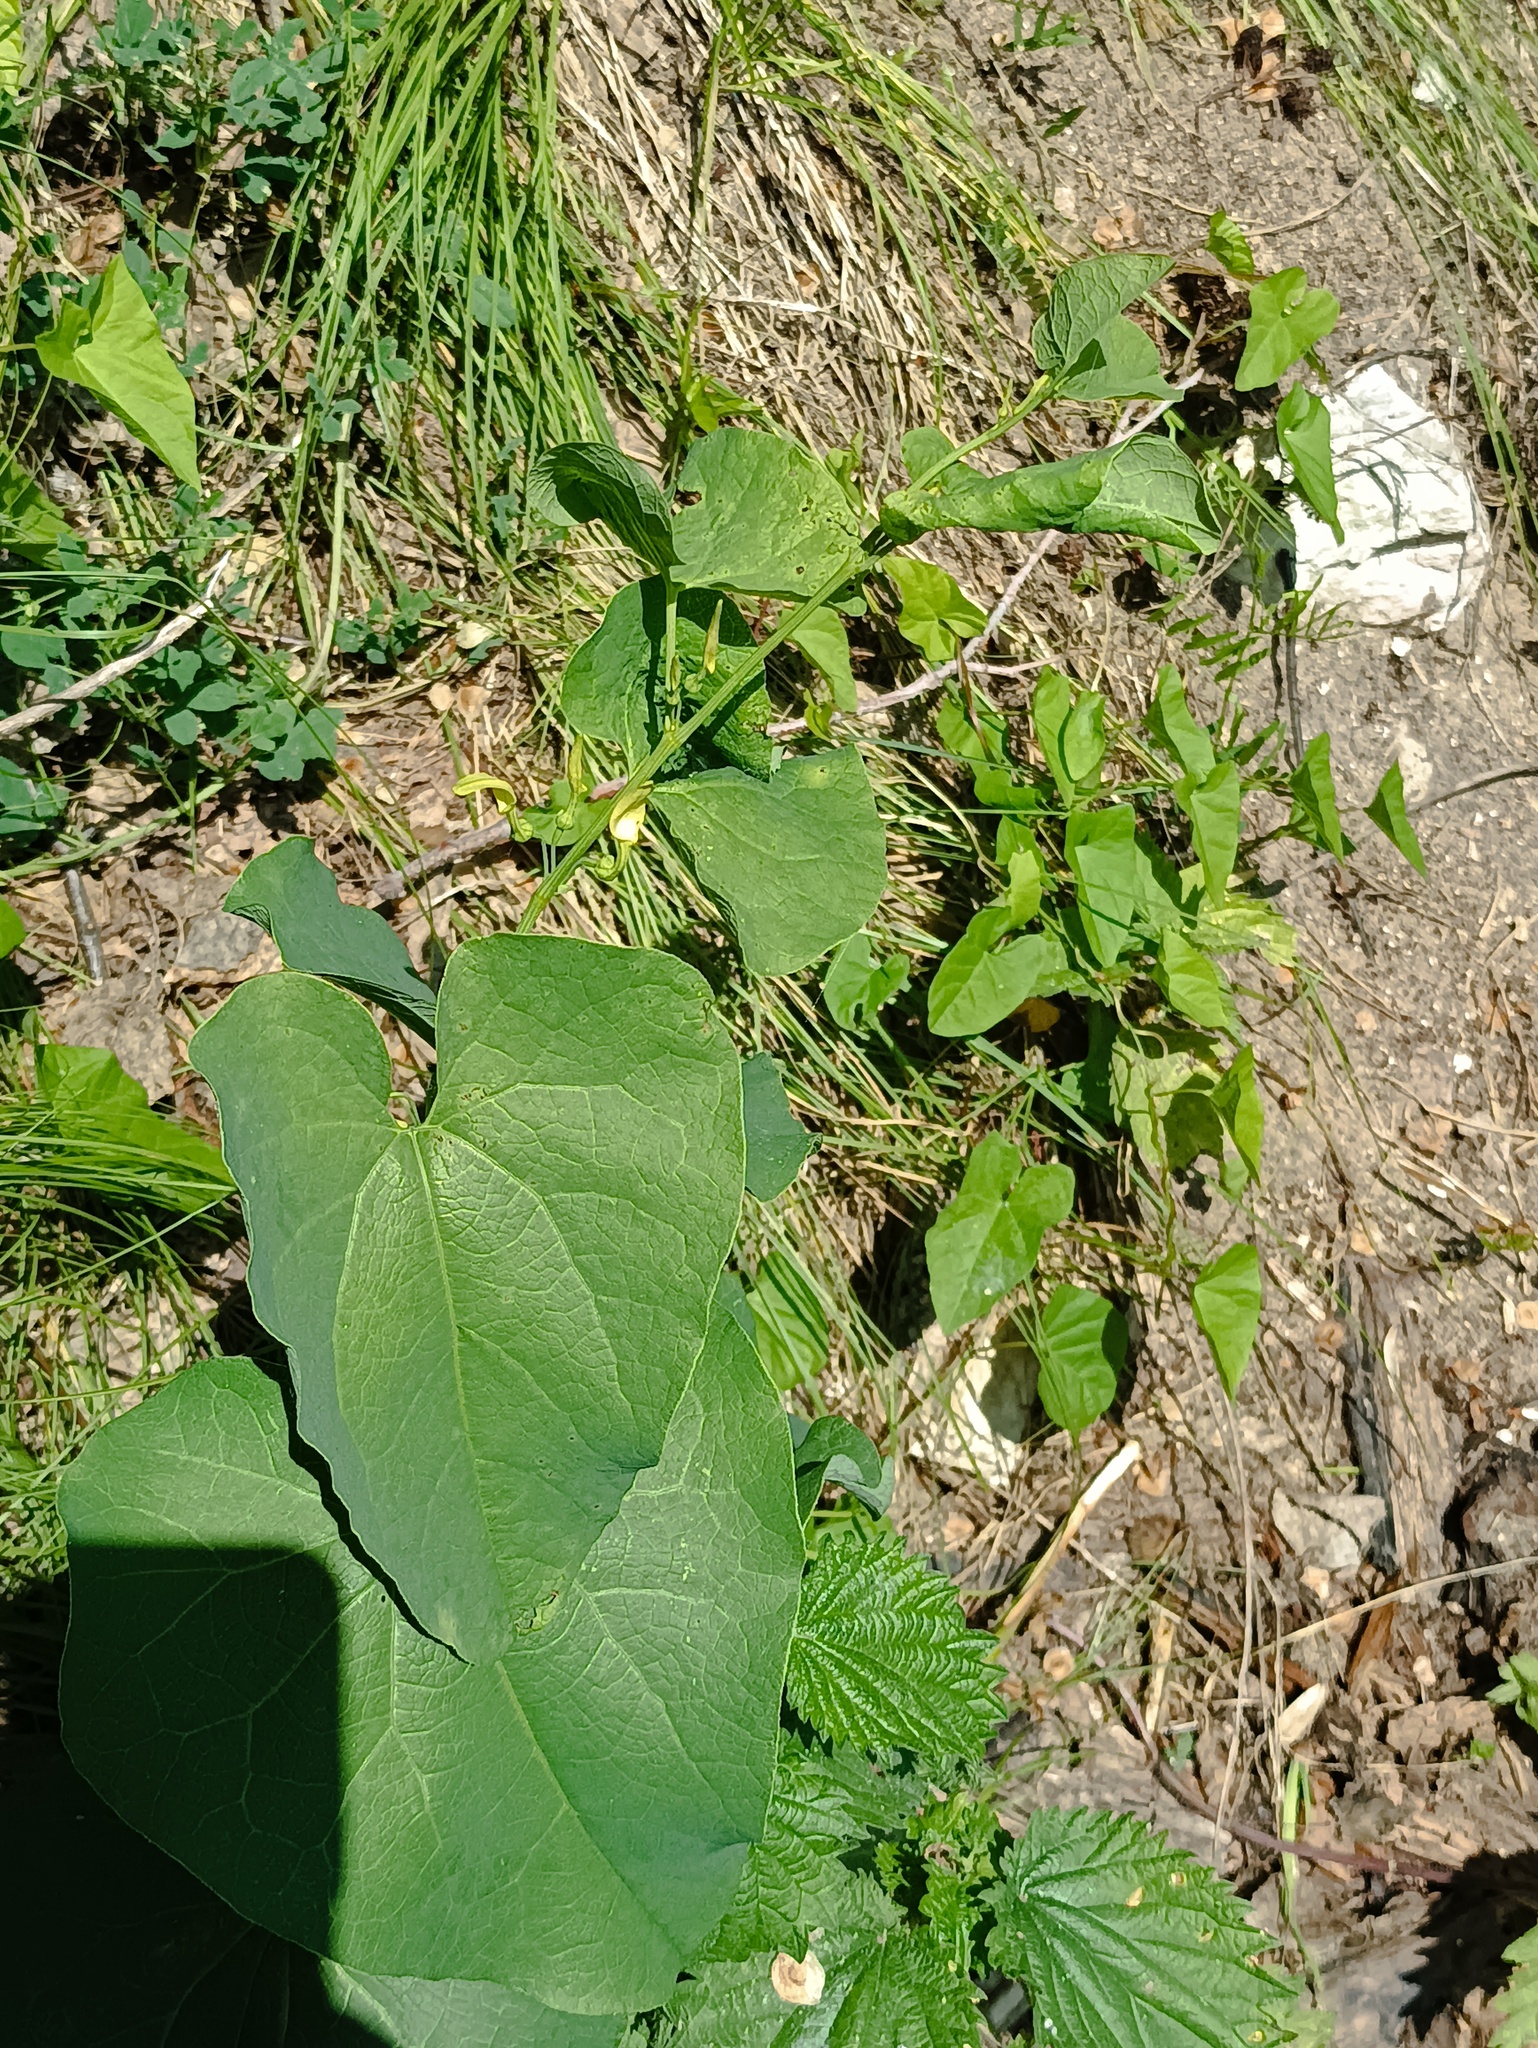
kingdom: Plantae
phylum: Tracheophyta
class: Magnoliopsida
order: Piperales
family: Aristolochiaceae
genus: Aristolochia
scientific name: Aristolochia clematitis
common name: Birthwort
